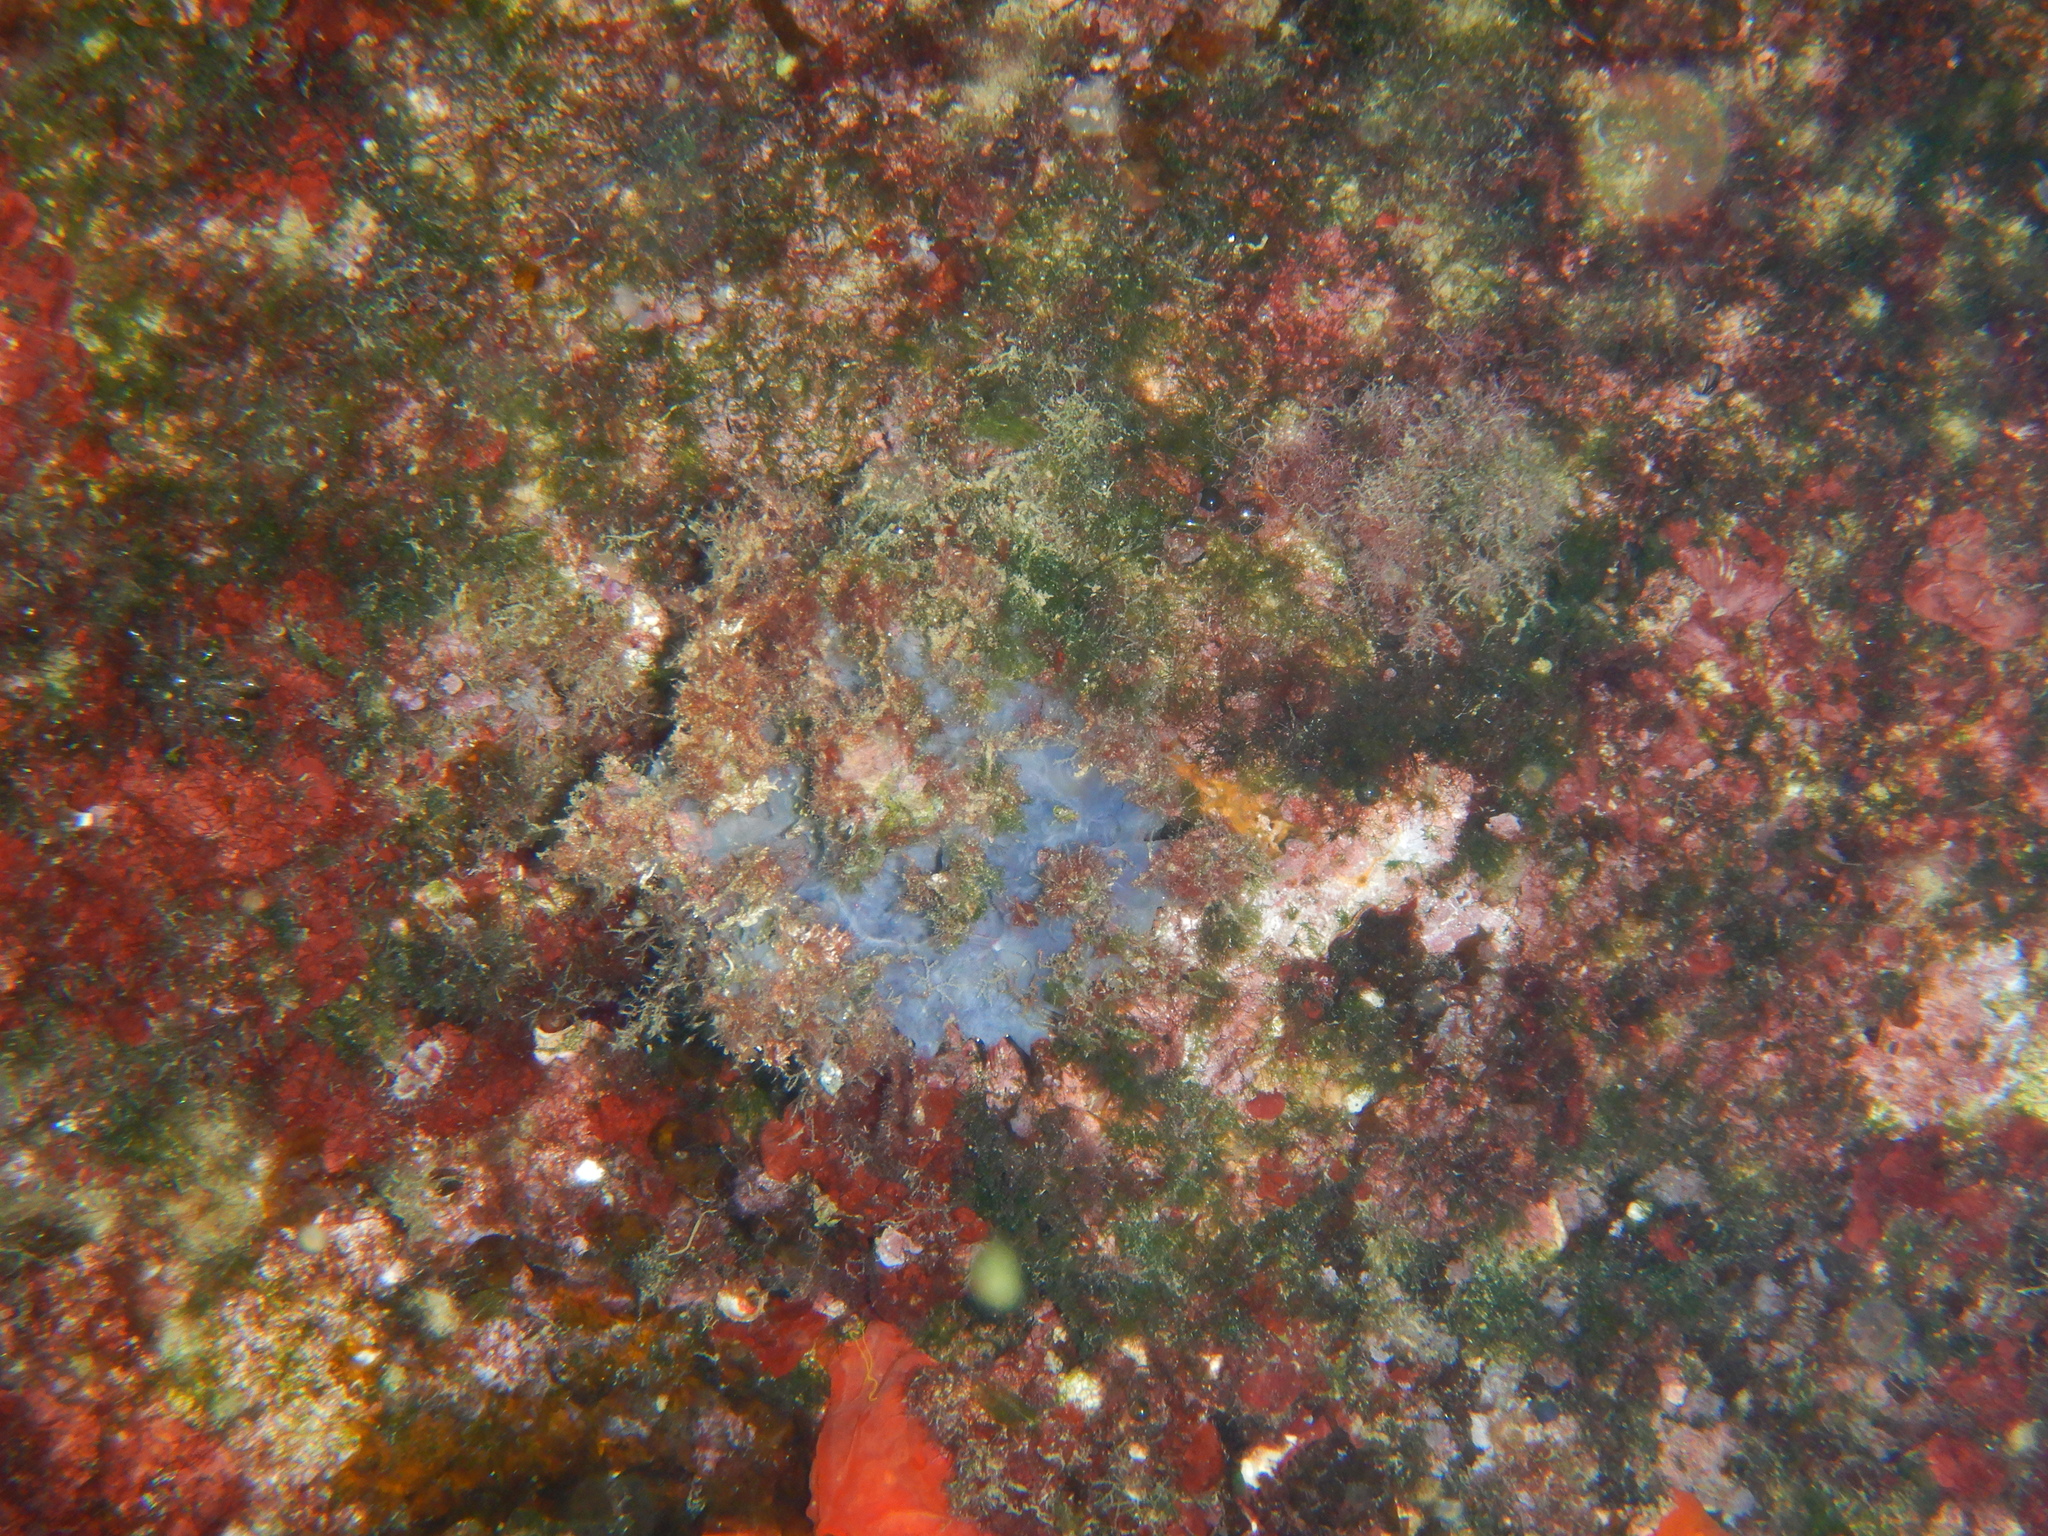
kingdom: Animalia
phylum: Porifera
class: Demospongiae
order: Poecilosclerida
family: Hymedesmiidae
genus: Phorbas
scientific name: Phorbas tenacior
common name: Bluish encrusting sponge
